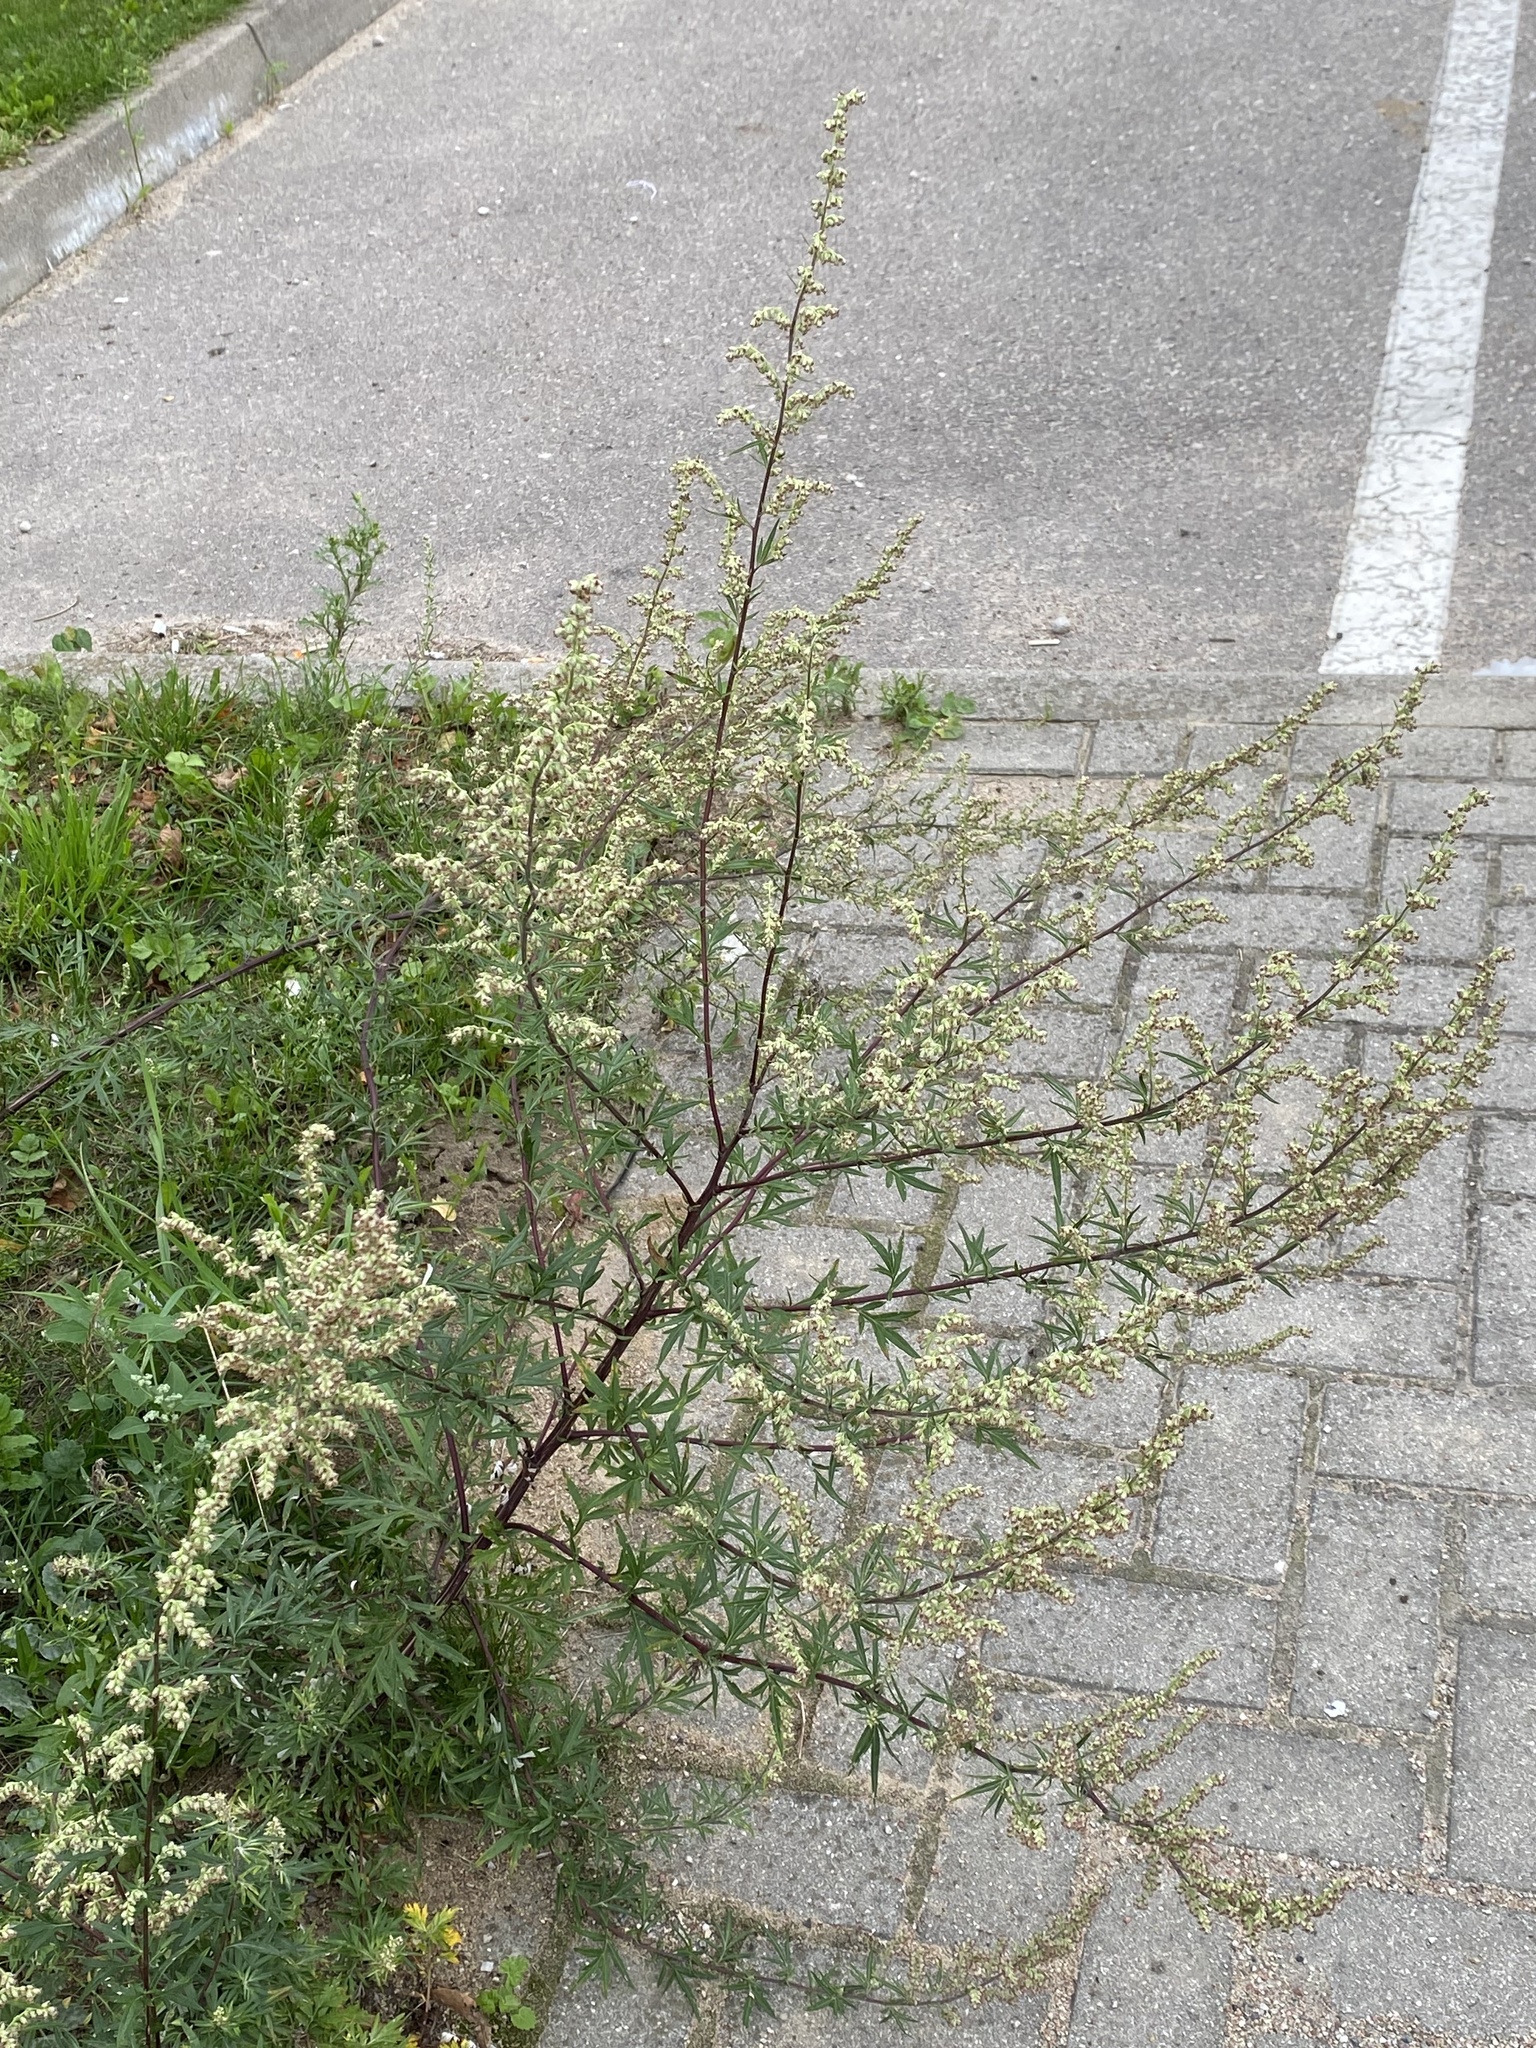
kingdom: Plantae
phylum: Tracheophyta
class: Magnoliopsida
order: Asterales
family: Asteraceae
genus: Artemisia
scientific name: Artemisia vulgaris
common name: Mugwort
